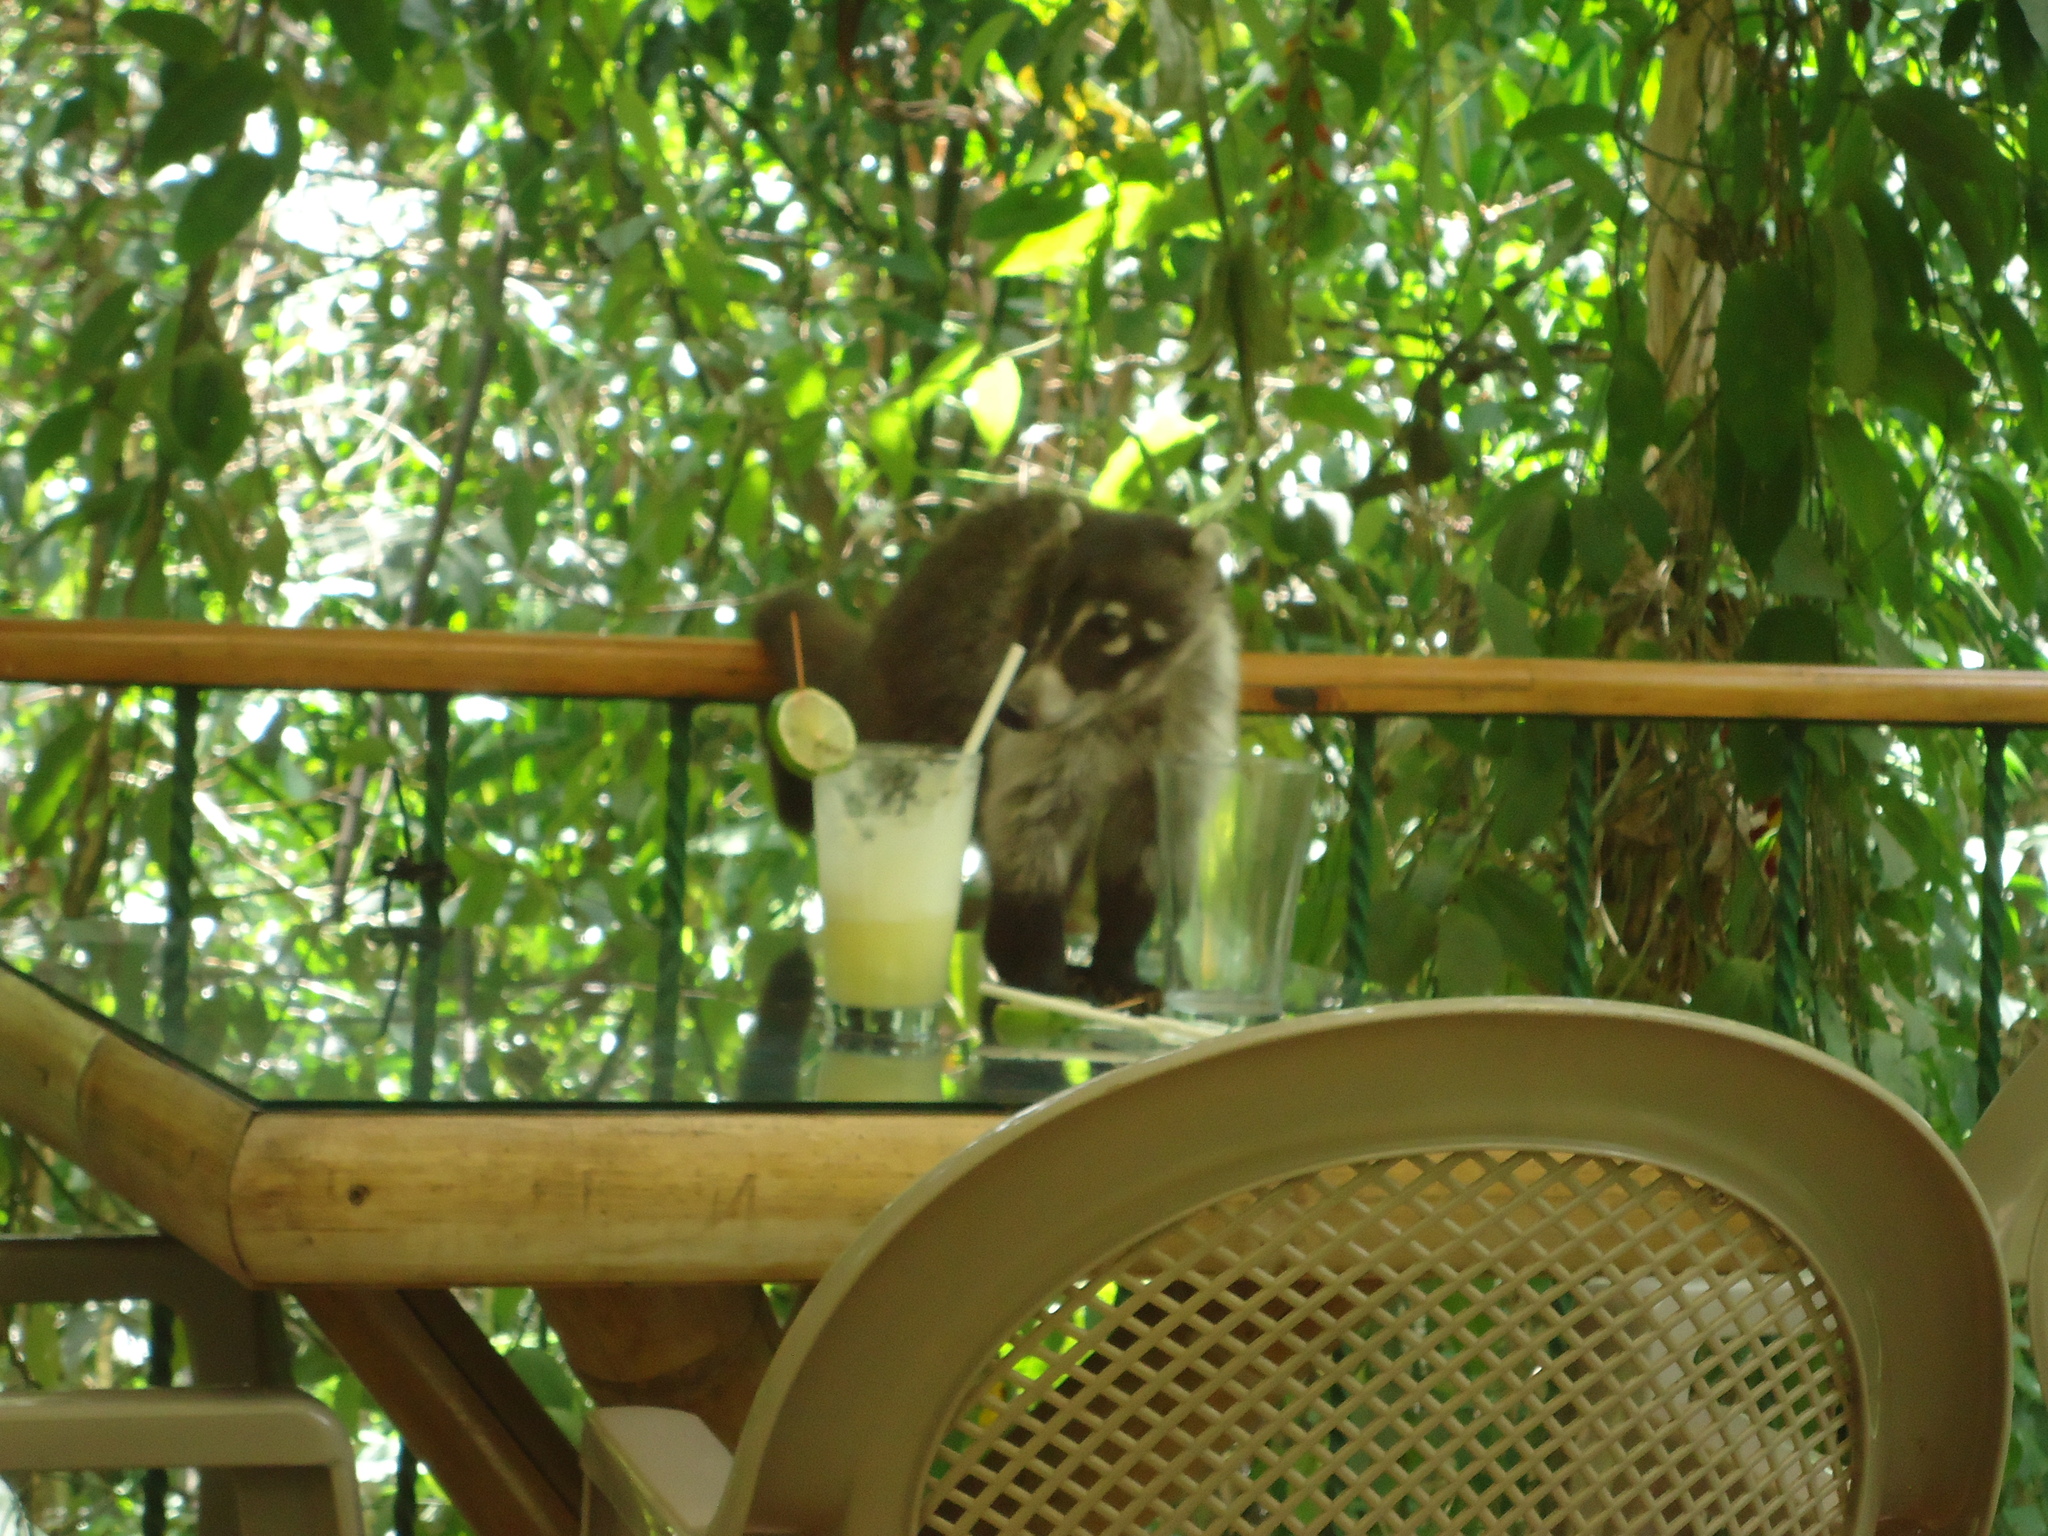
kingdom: Animalia
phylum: Chordata
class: Mammalia
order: Carnivora
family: Procyonidae
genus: Nasua
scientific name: Nasua narica
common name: White-nosed coati
